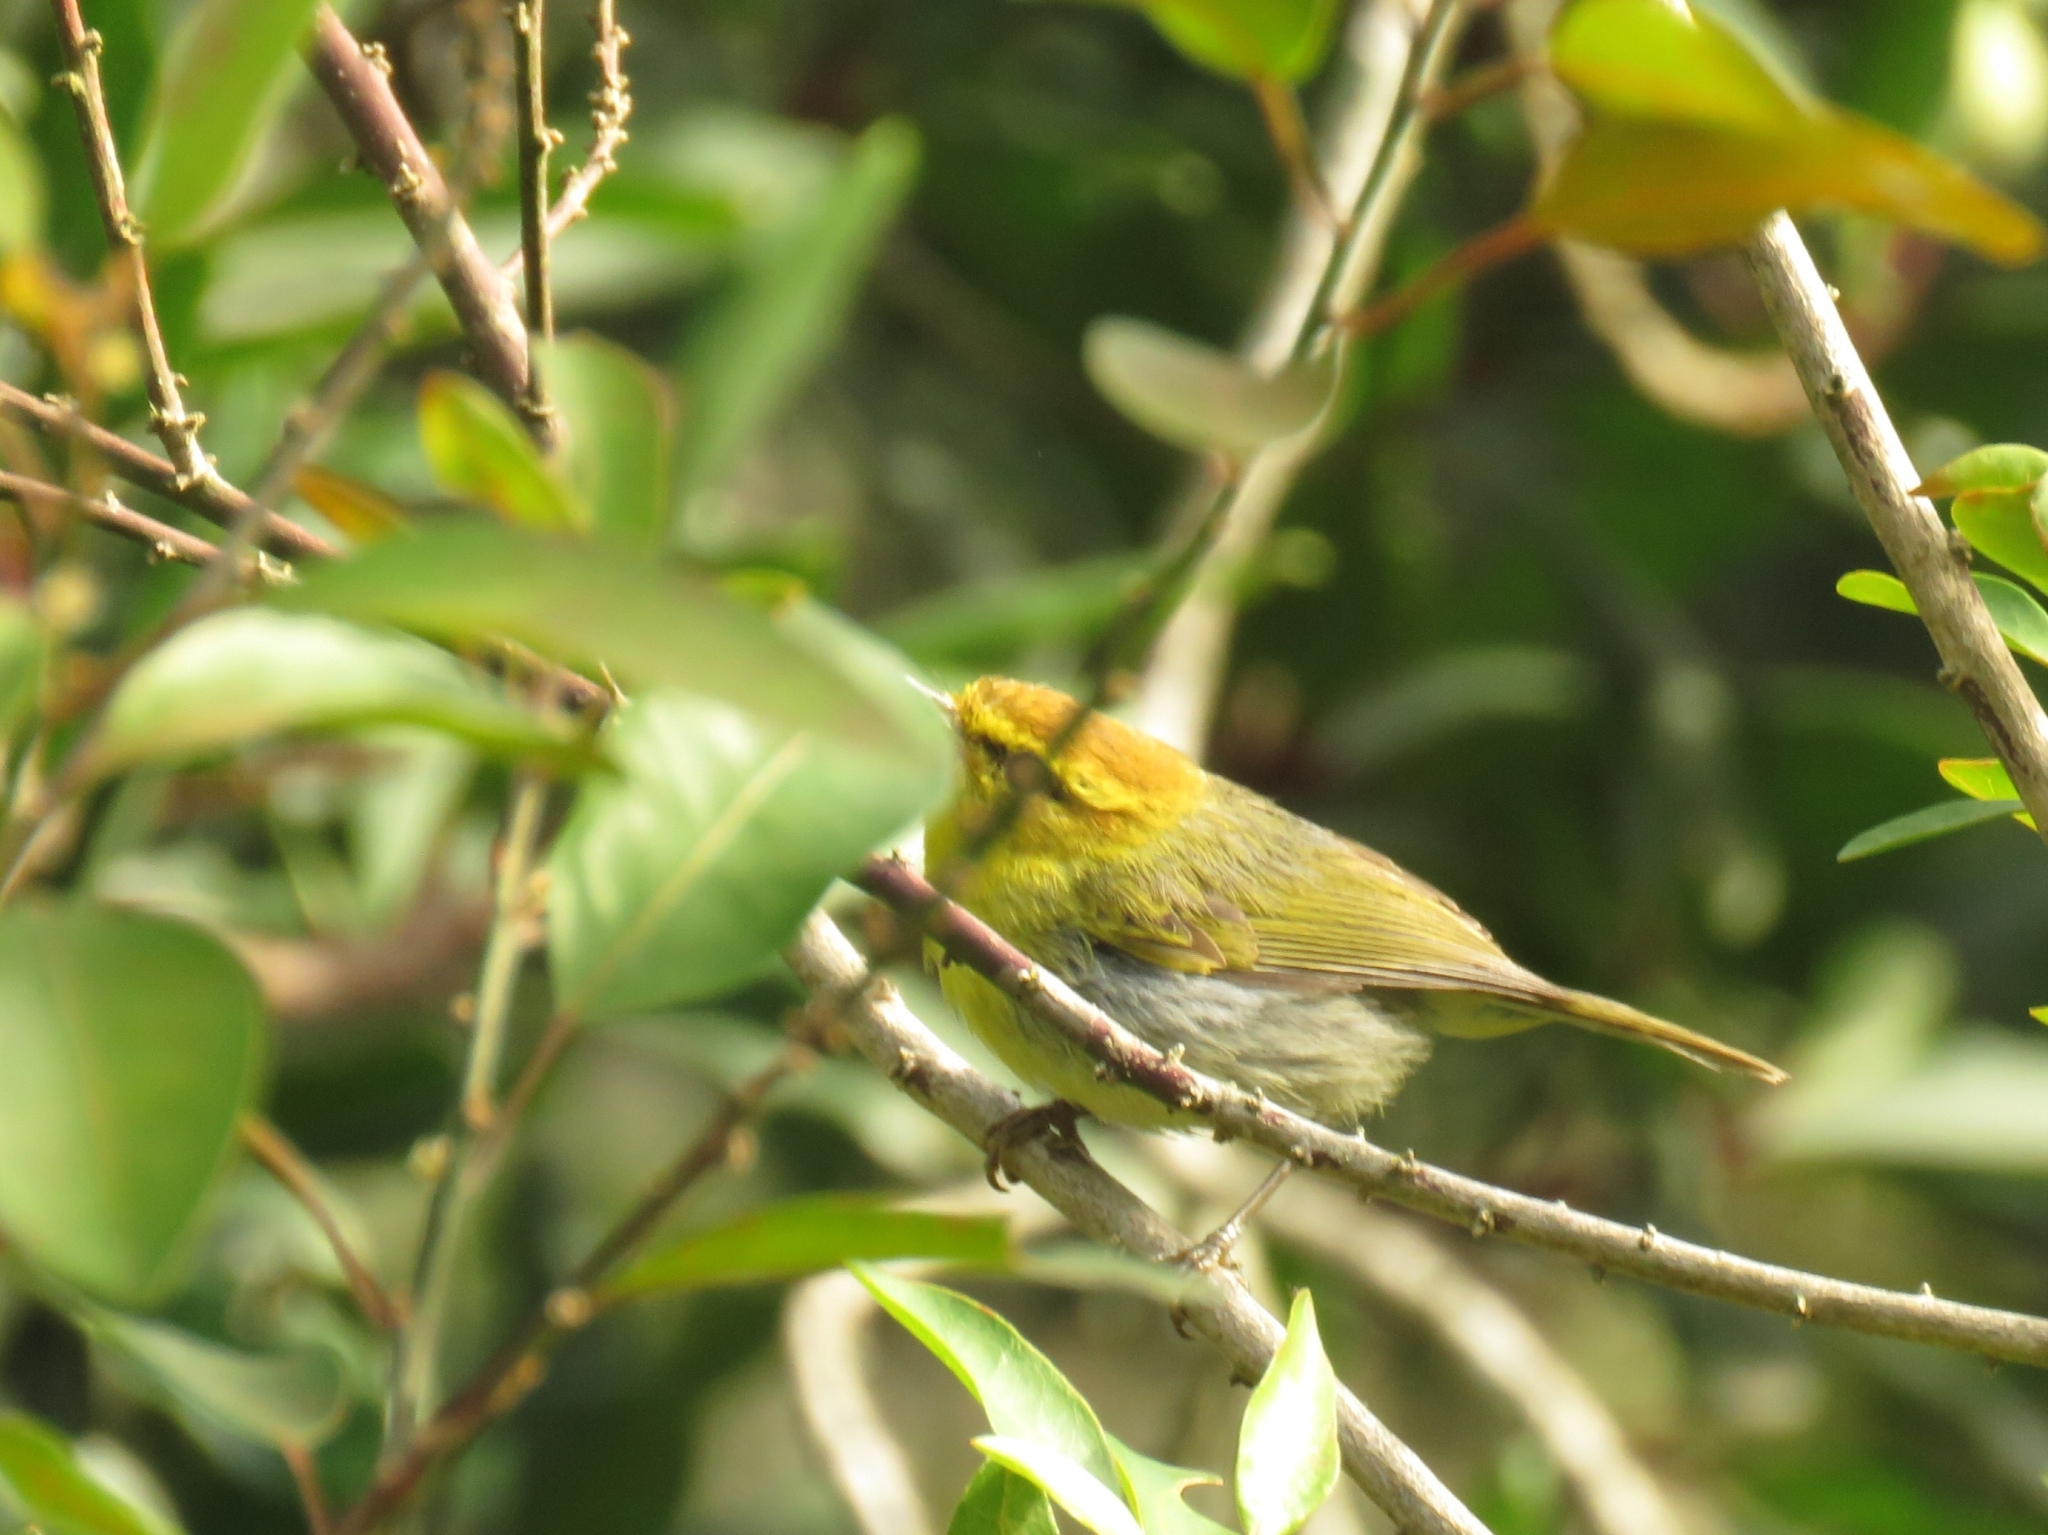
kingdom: Animalia
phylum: Chordata
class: Aves
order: Passeriformes
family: Phylloscopidae
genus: Phylloscopus
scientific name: Phylloscopus ruficapilla
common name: Yellow-throated woodland warbler
